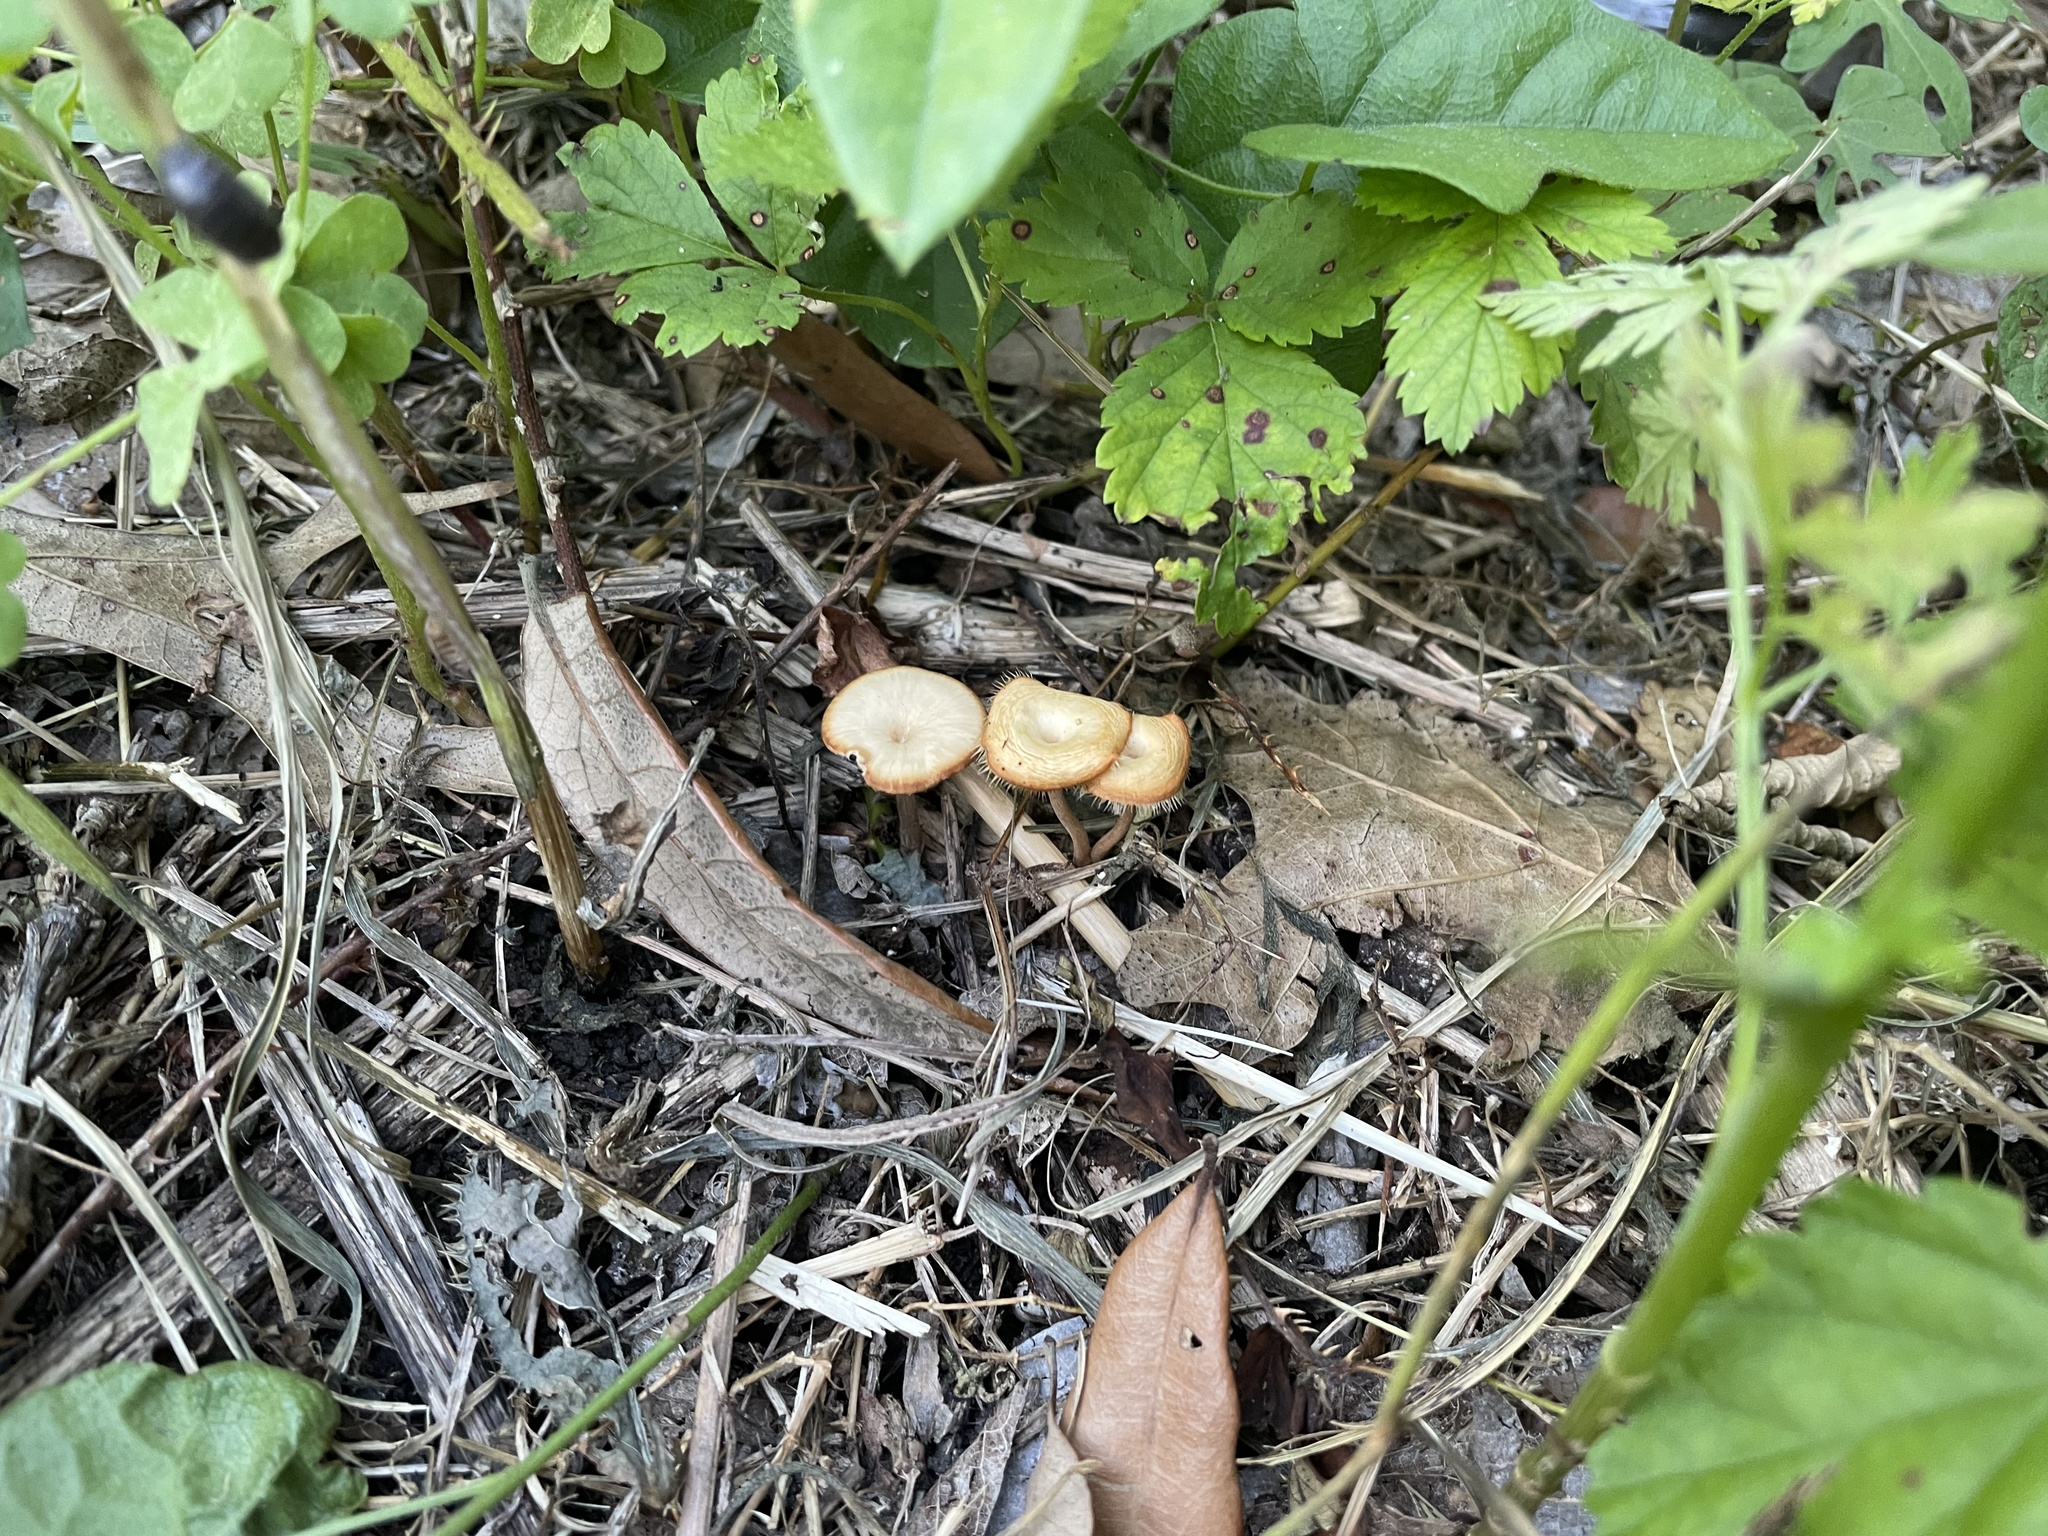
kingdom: Fungi
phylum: Basidiomycota
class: Agaricomycetes
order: Polyporales
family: Polyporaceae
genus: Lentinus
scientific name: Lentinus arcularius
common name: Spring polypore
